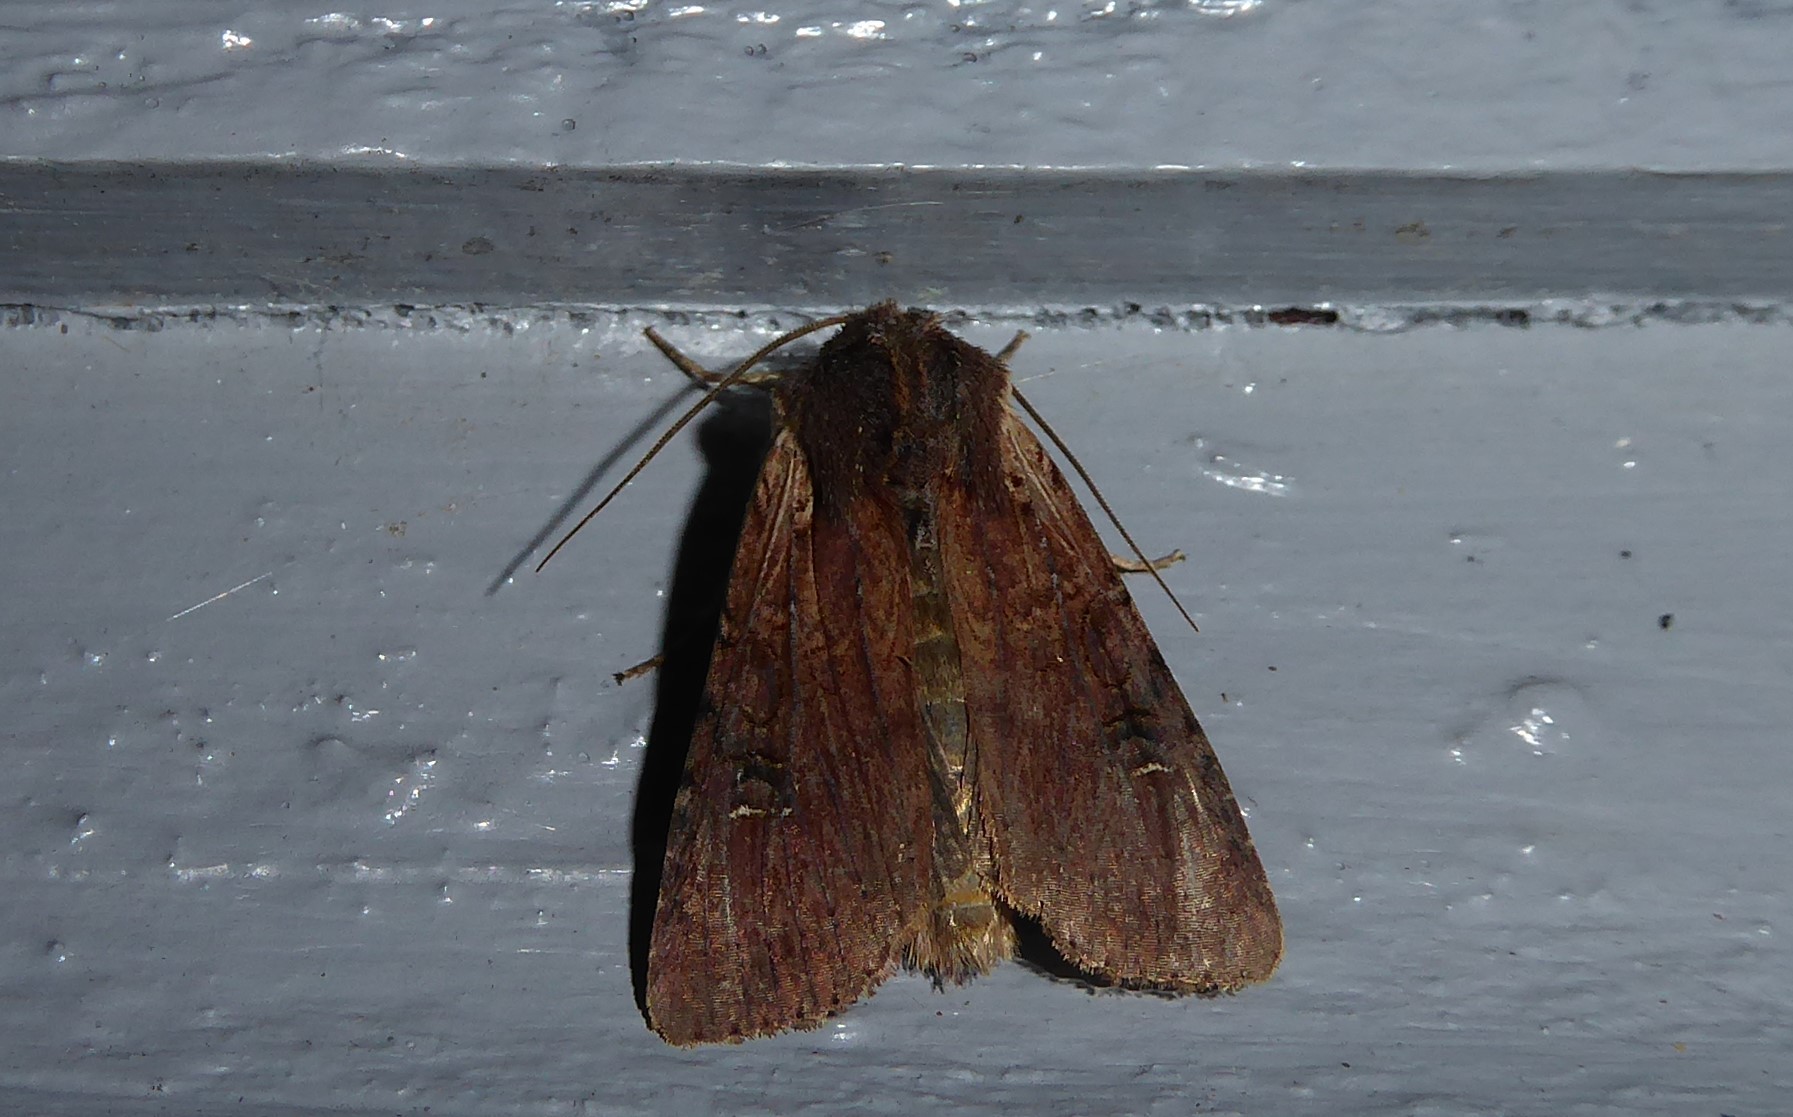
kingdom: Animalia
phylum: Arthropoda
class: Insecta
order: Lepidoptera
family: Noctuidae
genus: Ichneutica
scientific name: Ichneutica omoplaca
